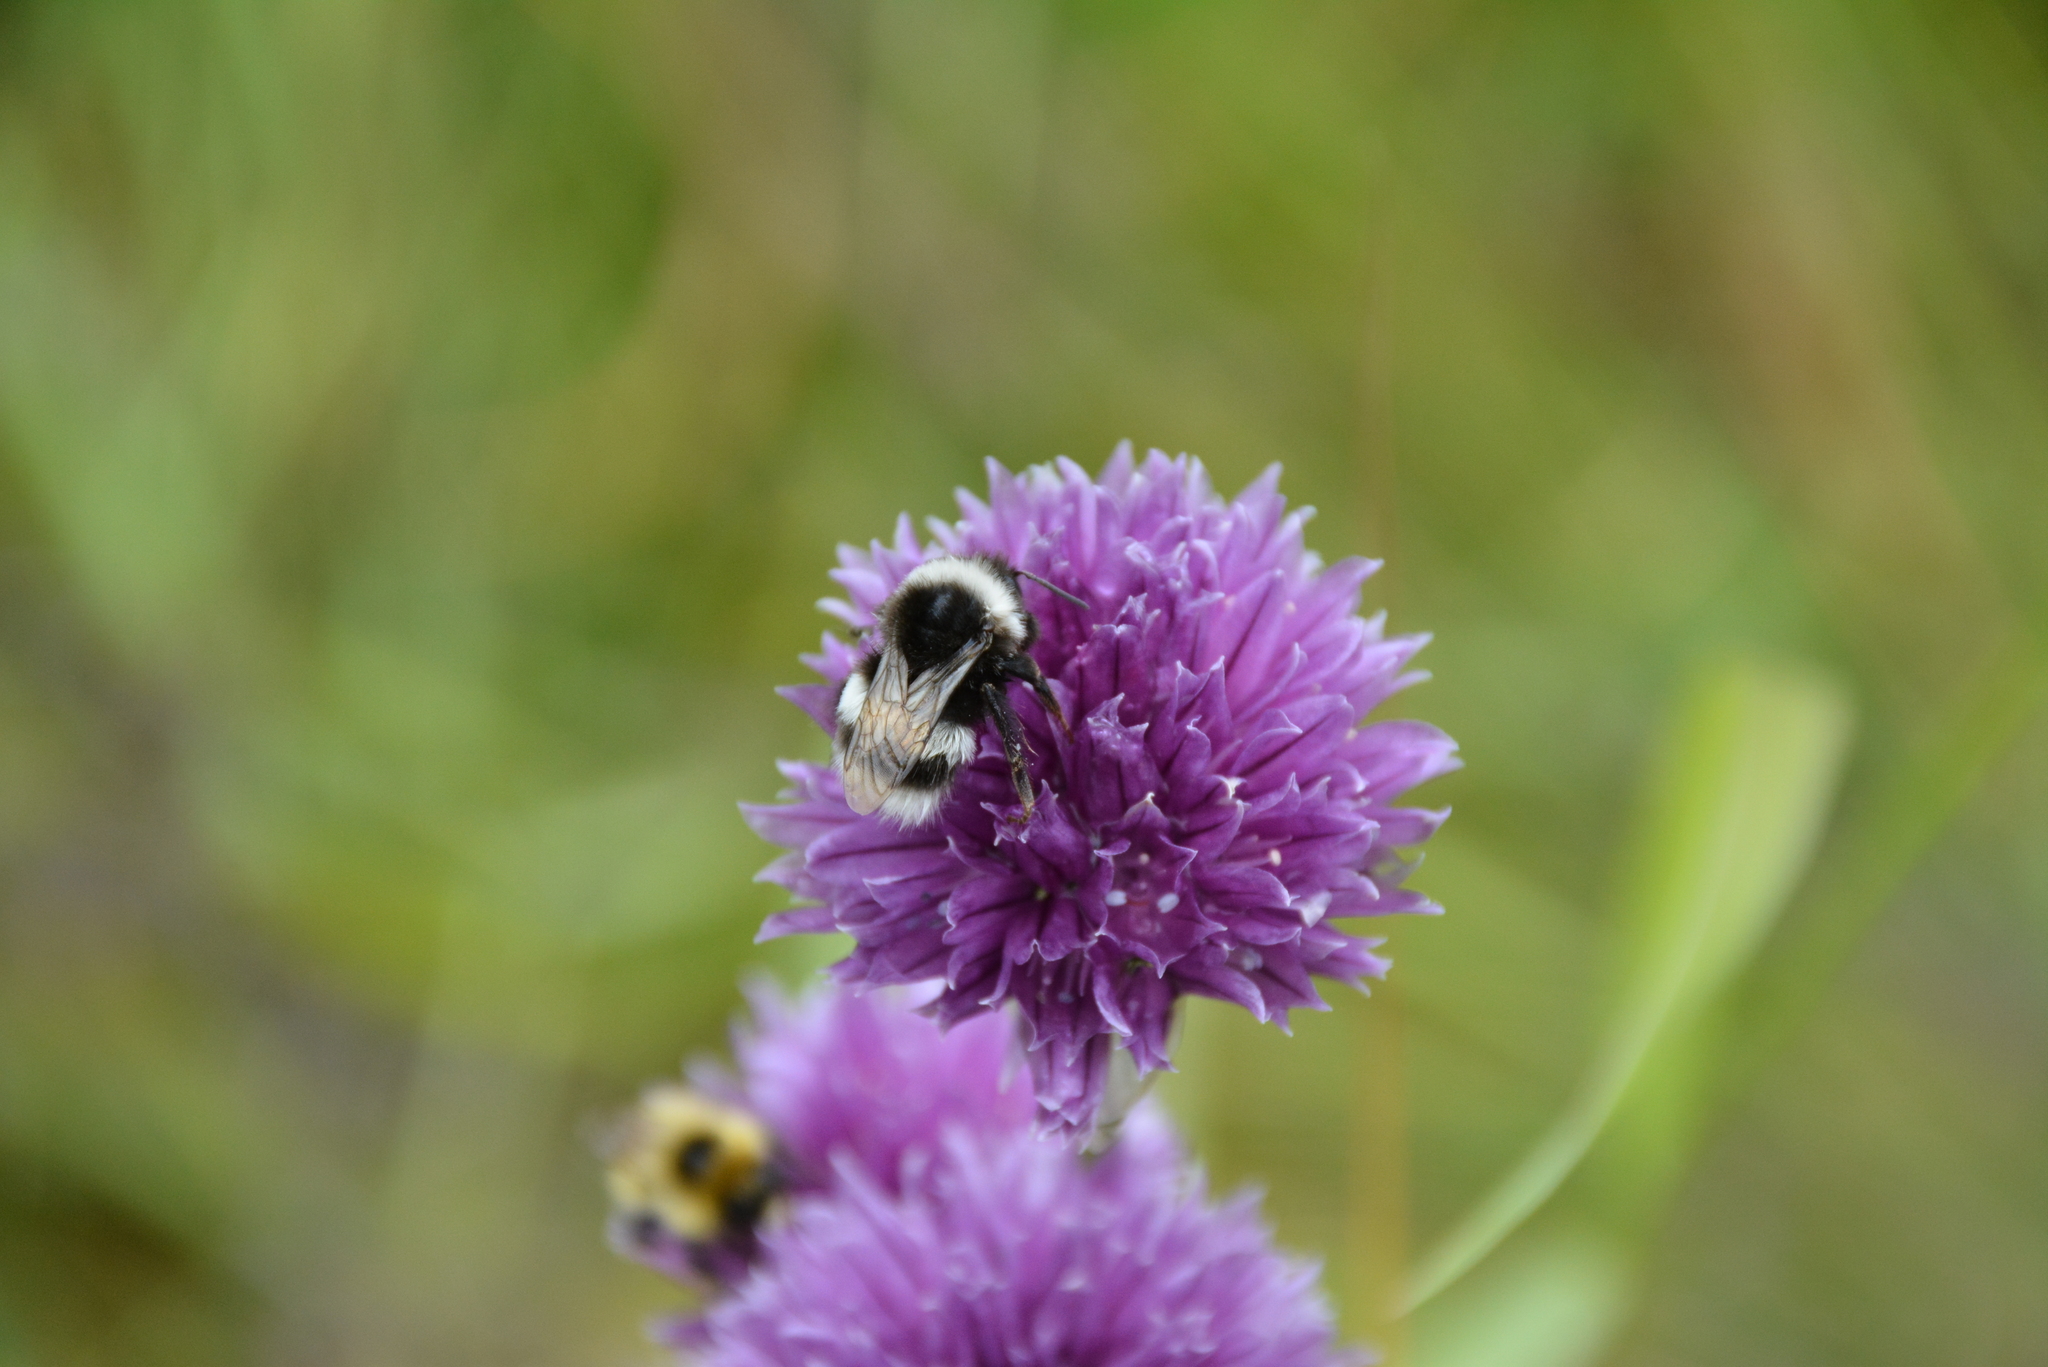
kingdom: Animalia
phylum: Arthropoda
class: Insecta
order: Hymenoptera
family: Apidae
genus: Bombus
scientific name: Bombus cryptarum
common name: Cryptic bumblebee
